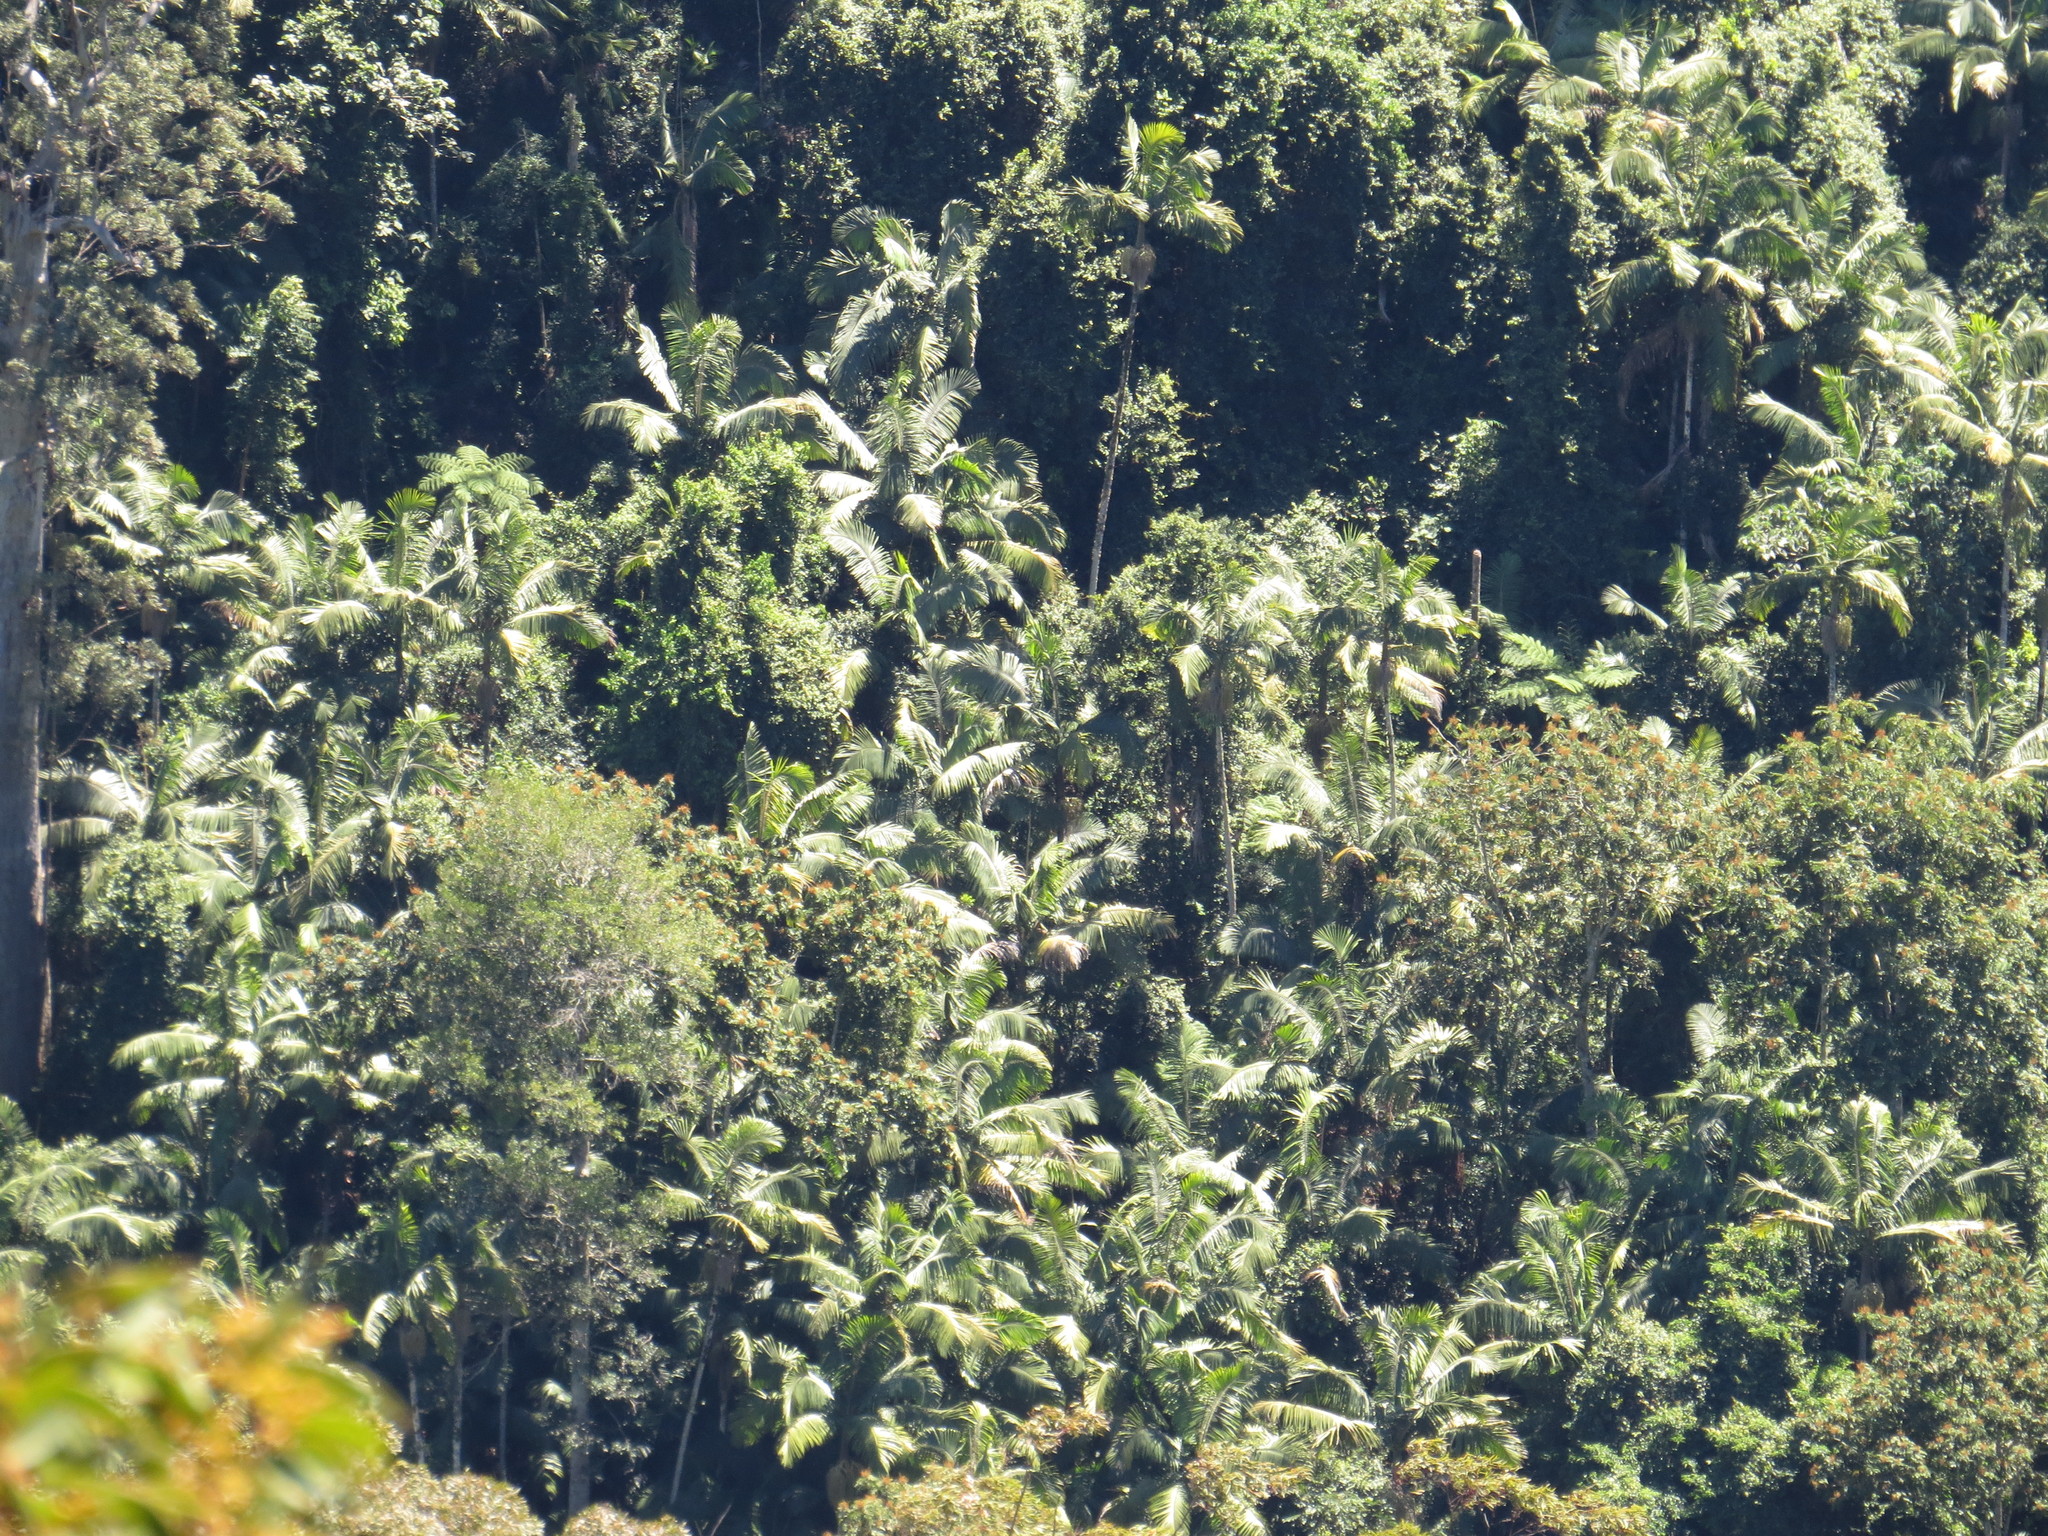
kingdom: Plantae
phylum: Tracheophyta
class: Liliopsida
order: Arecales
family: Arecaceae
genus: Archontophoenix
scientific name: Archontophoenix cunninghamiana
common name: Piccabeen bangalow palm
